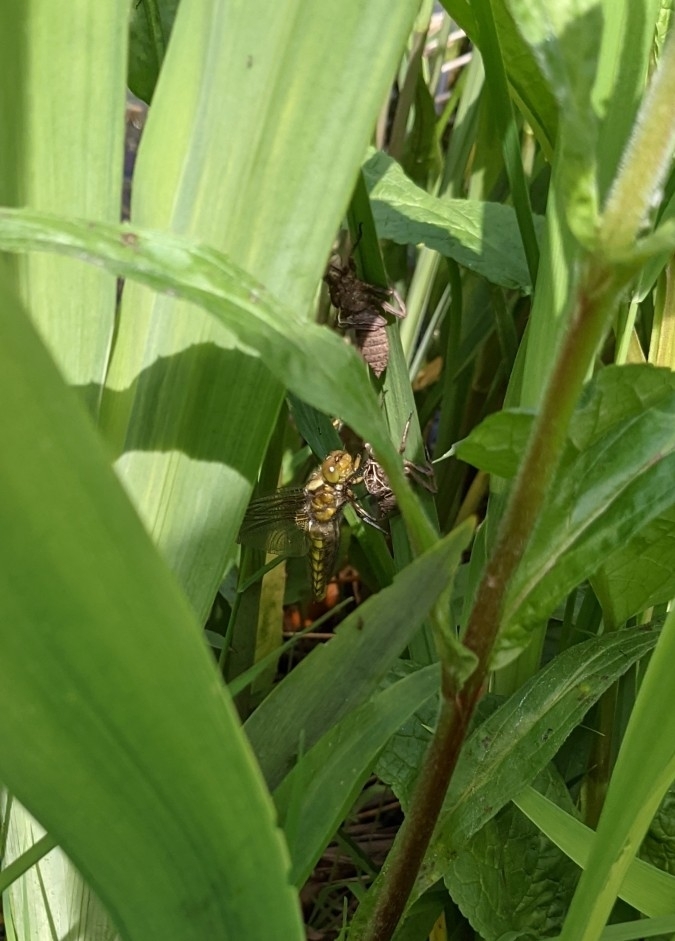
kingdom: Animalia
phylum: Arthropoda
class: Insecta
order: Odonata
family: Libellulidae
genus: Libellula
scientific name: Libellula depressa
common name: Broad-bodied chaser
